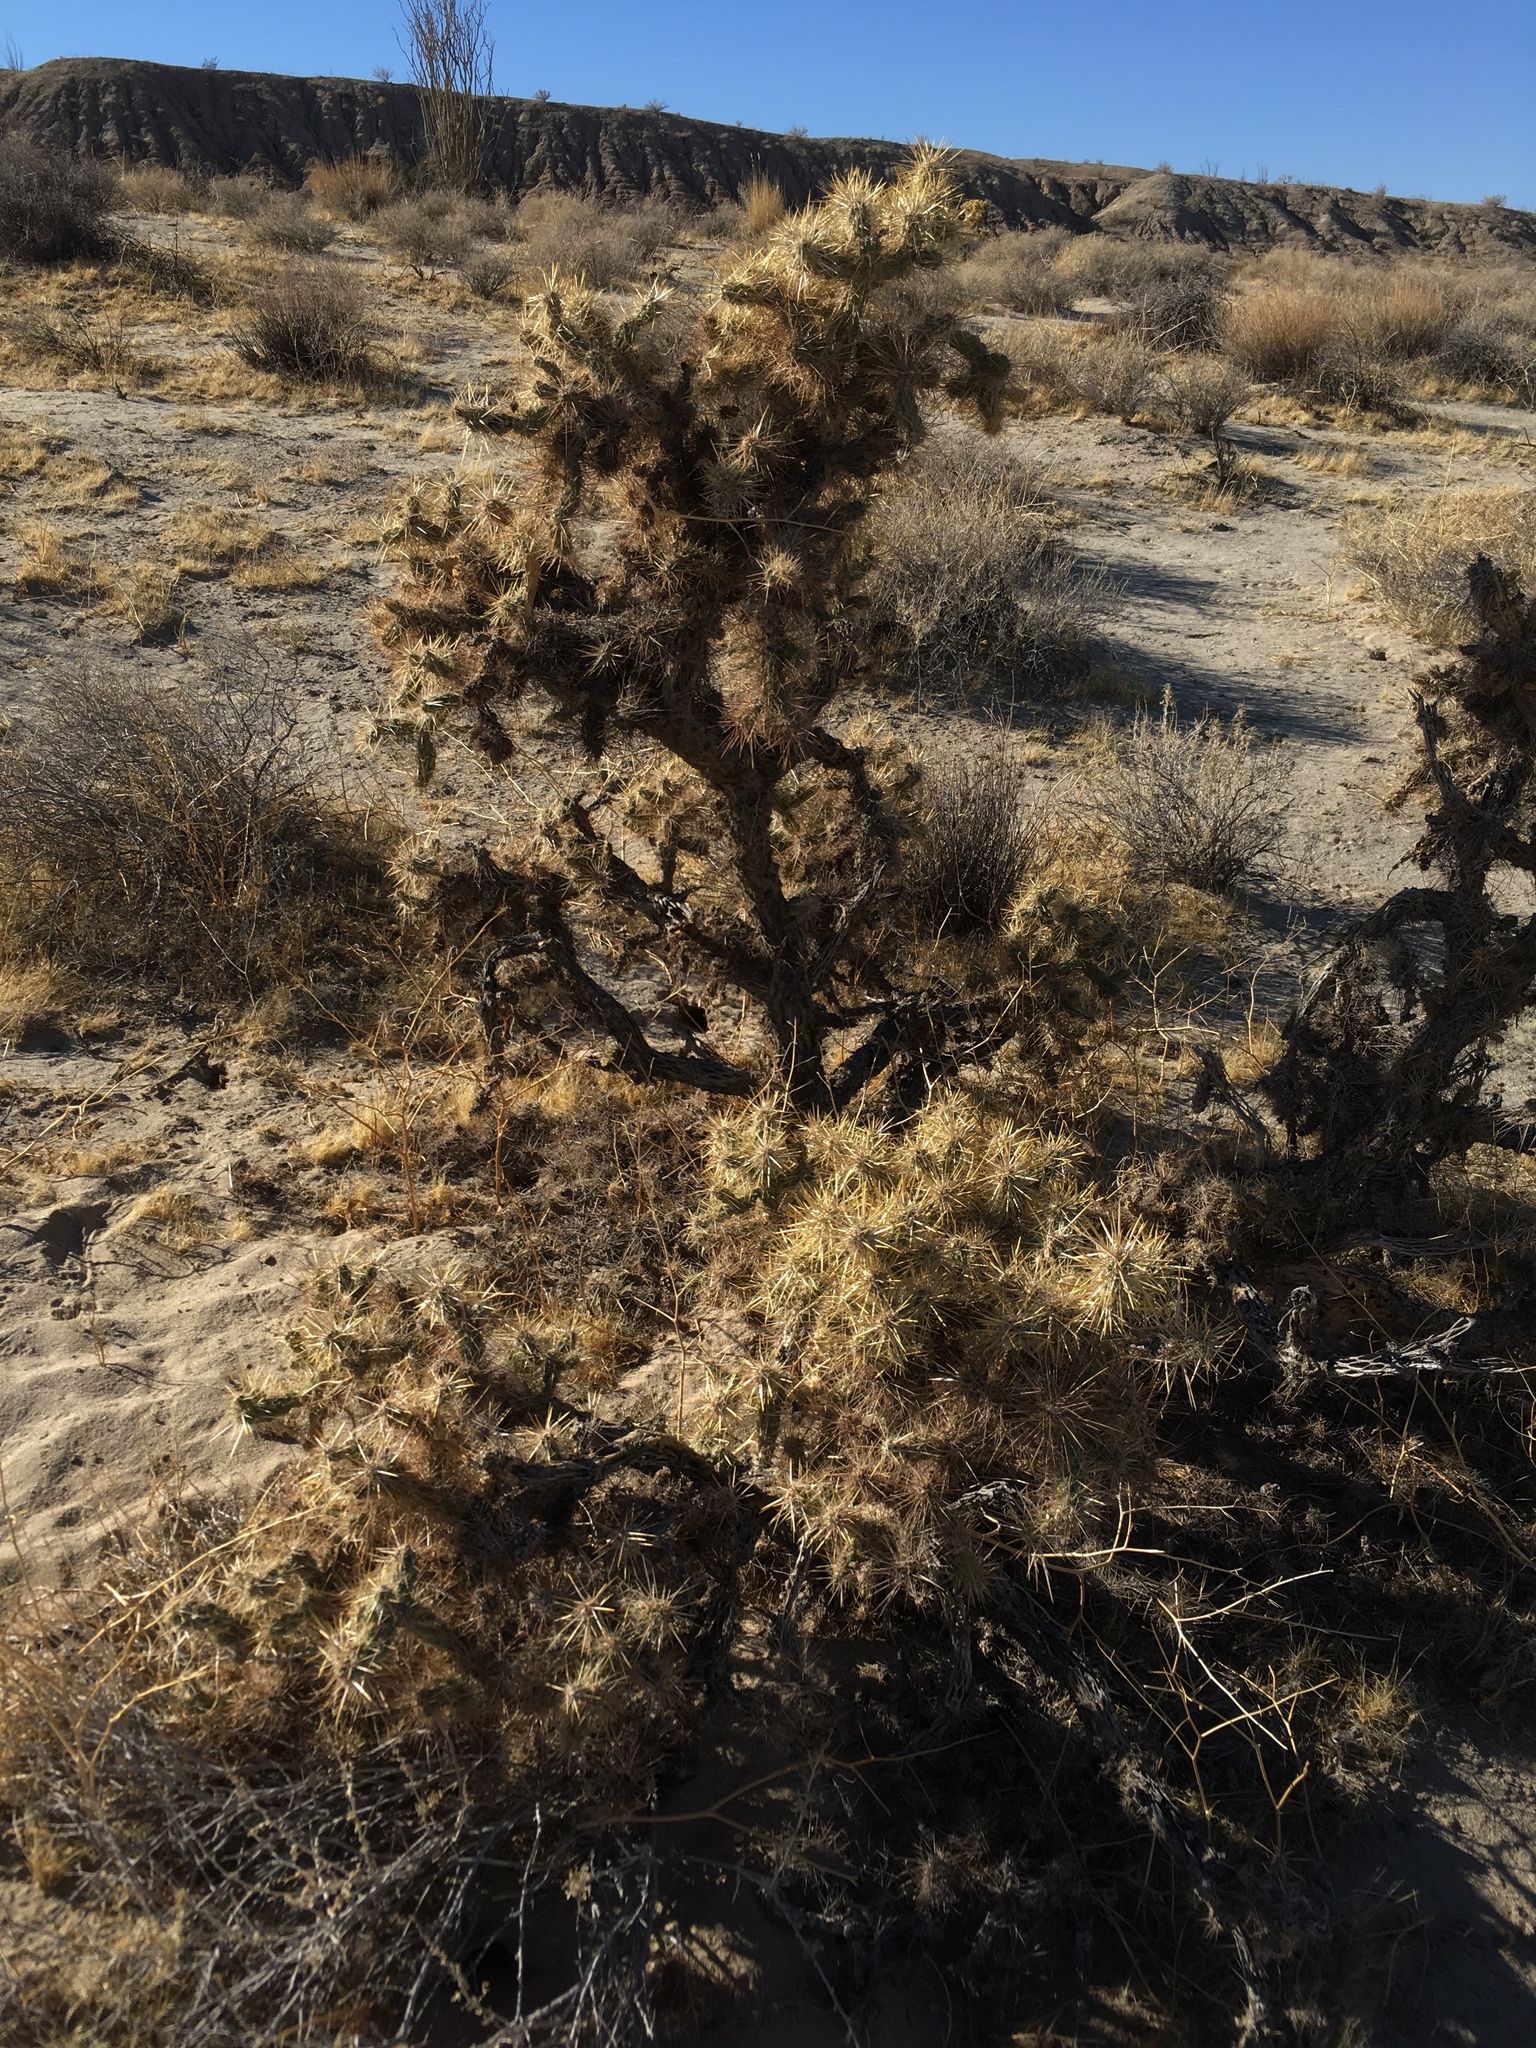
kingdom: Plantae
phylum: Tracheophyta
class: Magnoliopsida
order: Caryophyllales
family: Cactaceae
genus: Cylindropuntia
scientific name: Cylindropuntia echinocarpa
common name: Ground cholla
